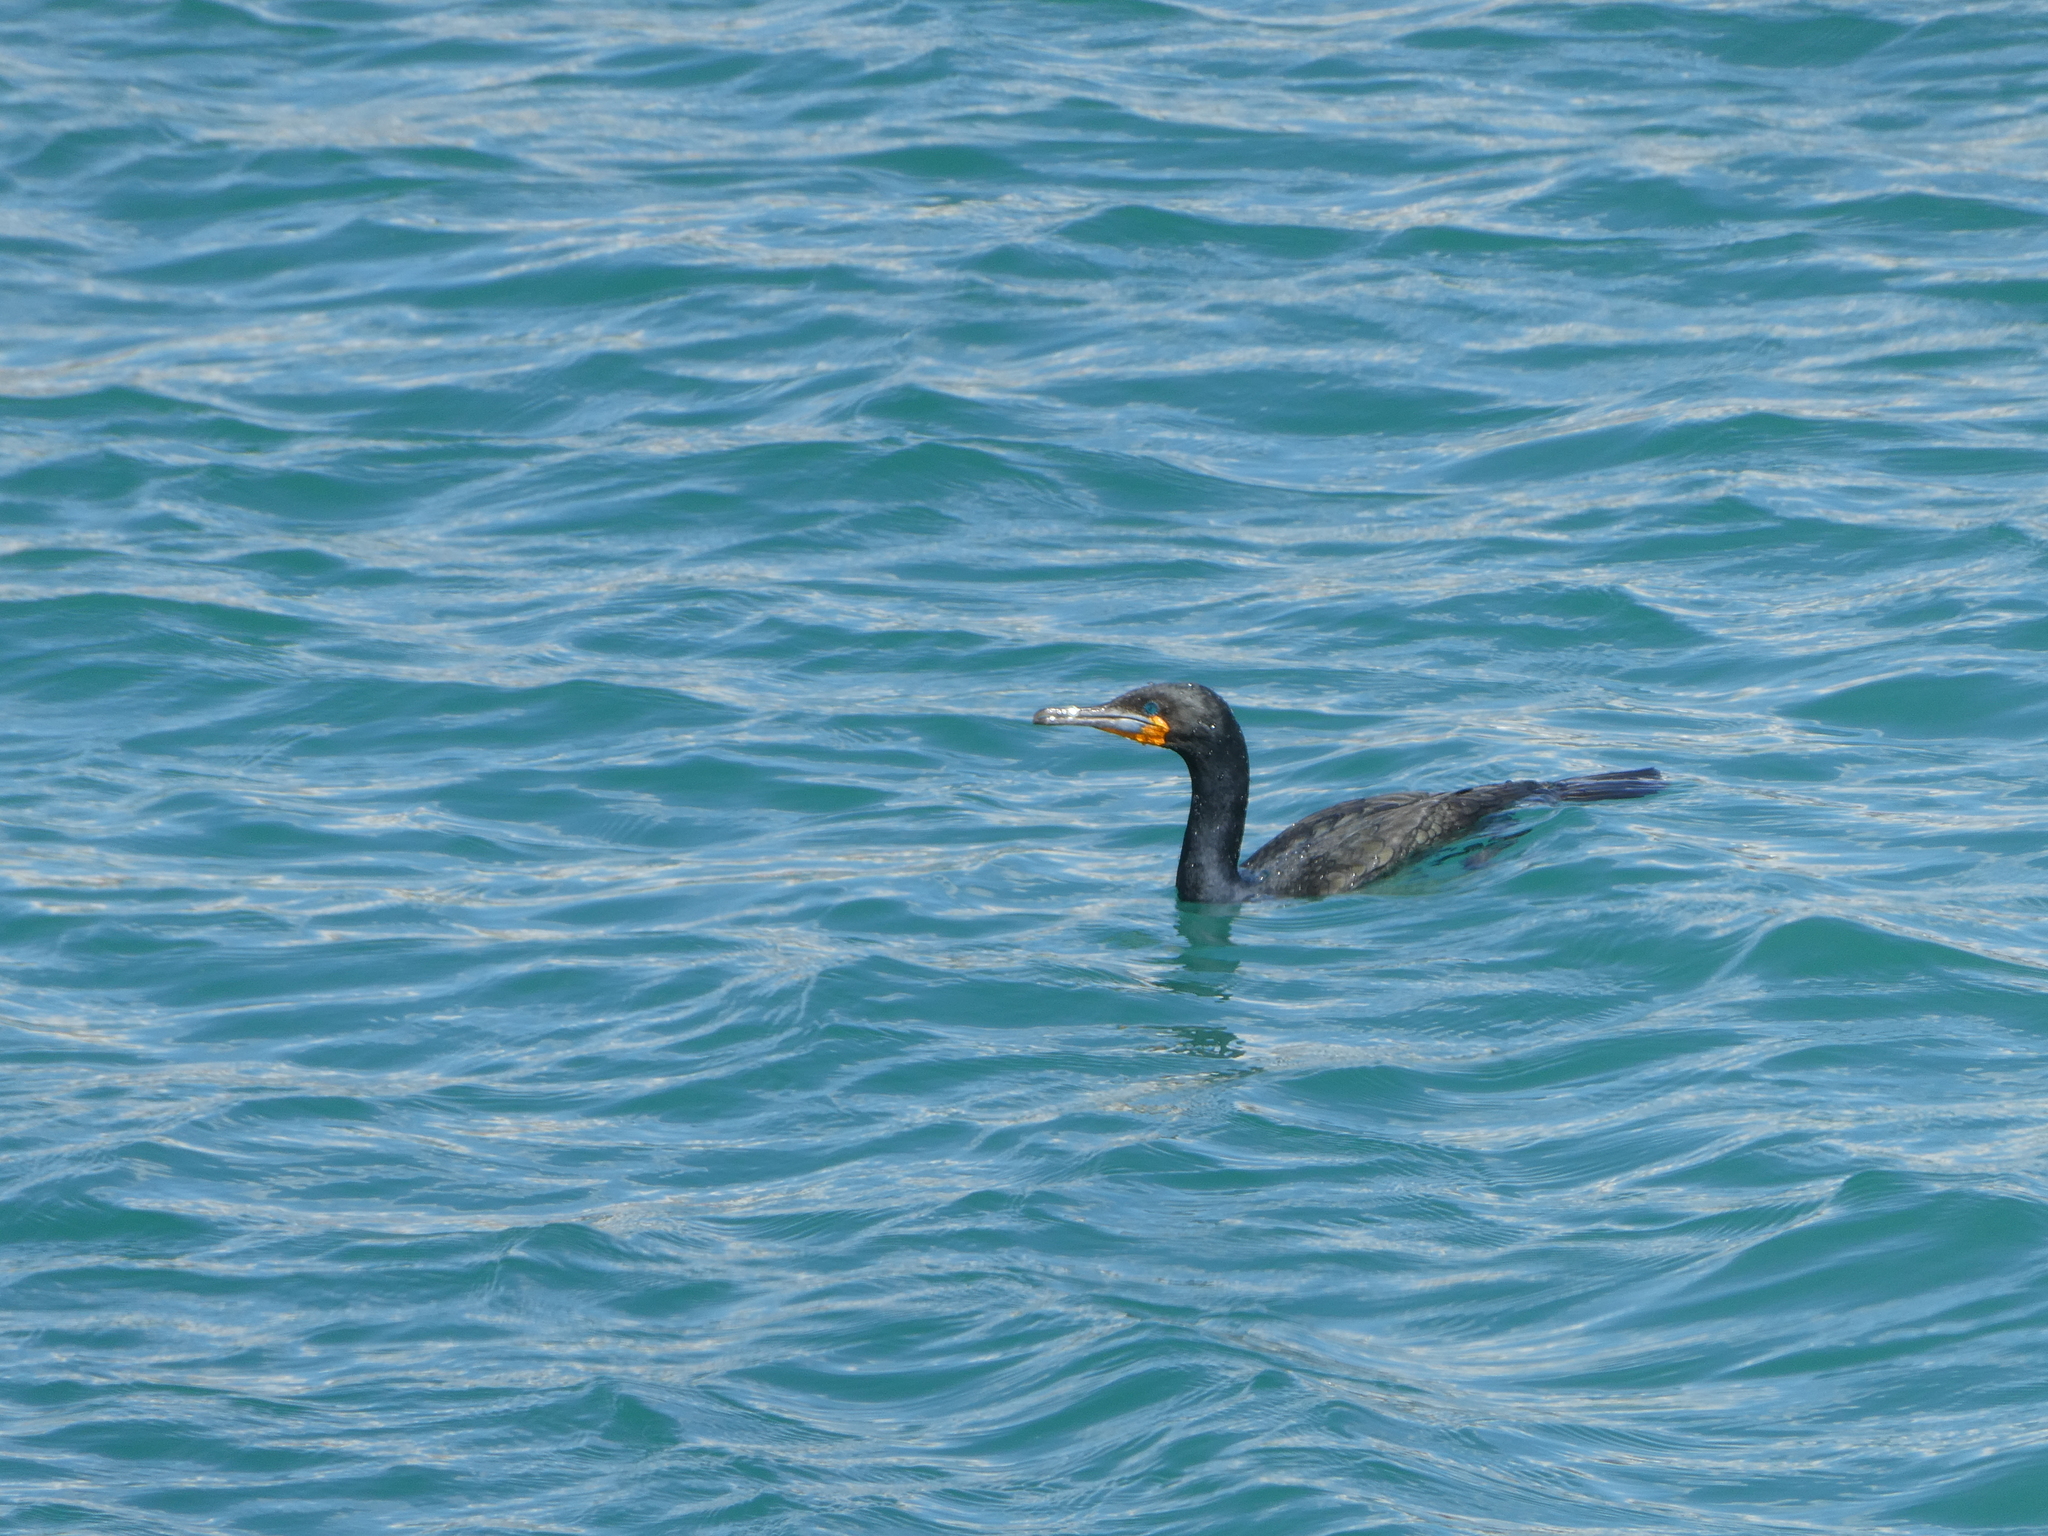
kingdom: Animalia
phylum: Chordata
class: Aves
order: Suliformes
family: Phalacrocoracidae
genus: Phalacrocorax
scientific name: Phalacrocorax capensis
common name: Cape cormorant
